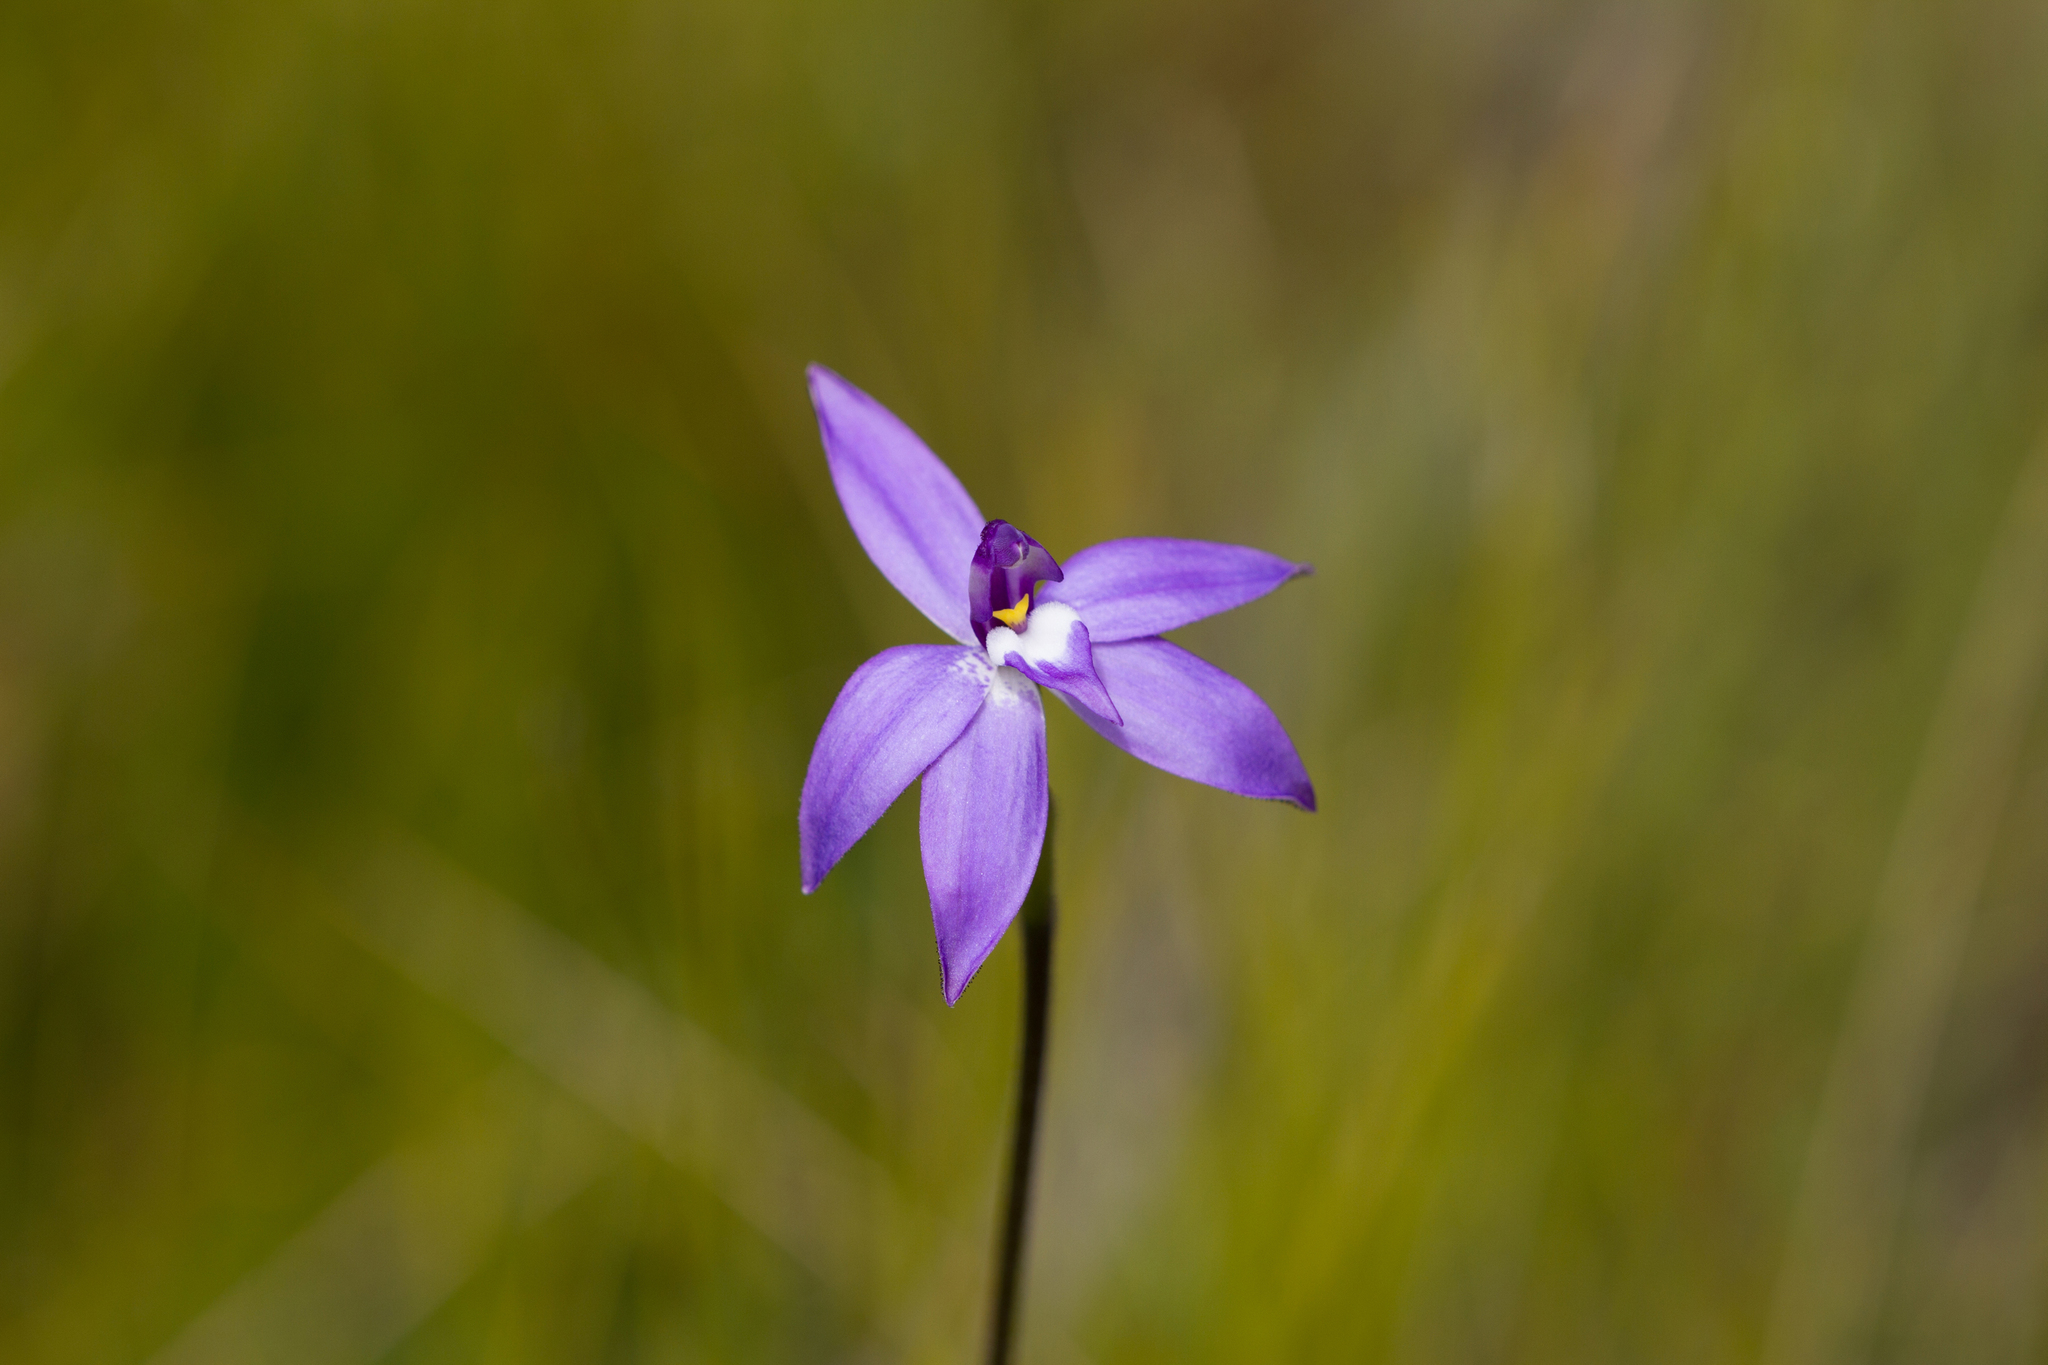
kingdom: Plantae
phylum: Tracheophyta
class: Liliopsida
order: Asparagales
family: Orchidaceae
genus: Caladenia
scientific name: Caladenia major
